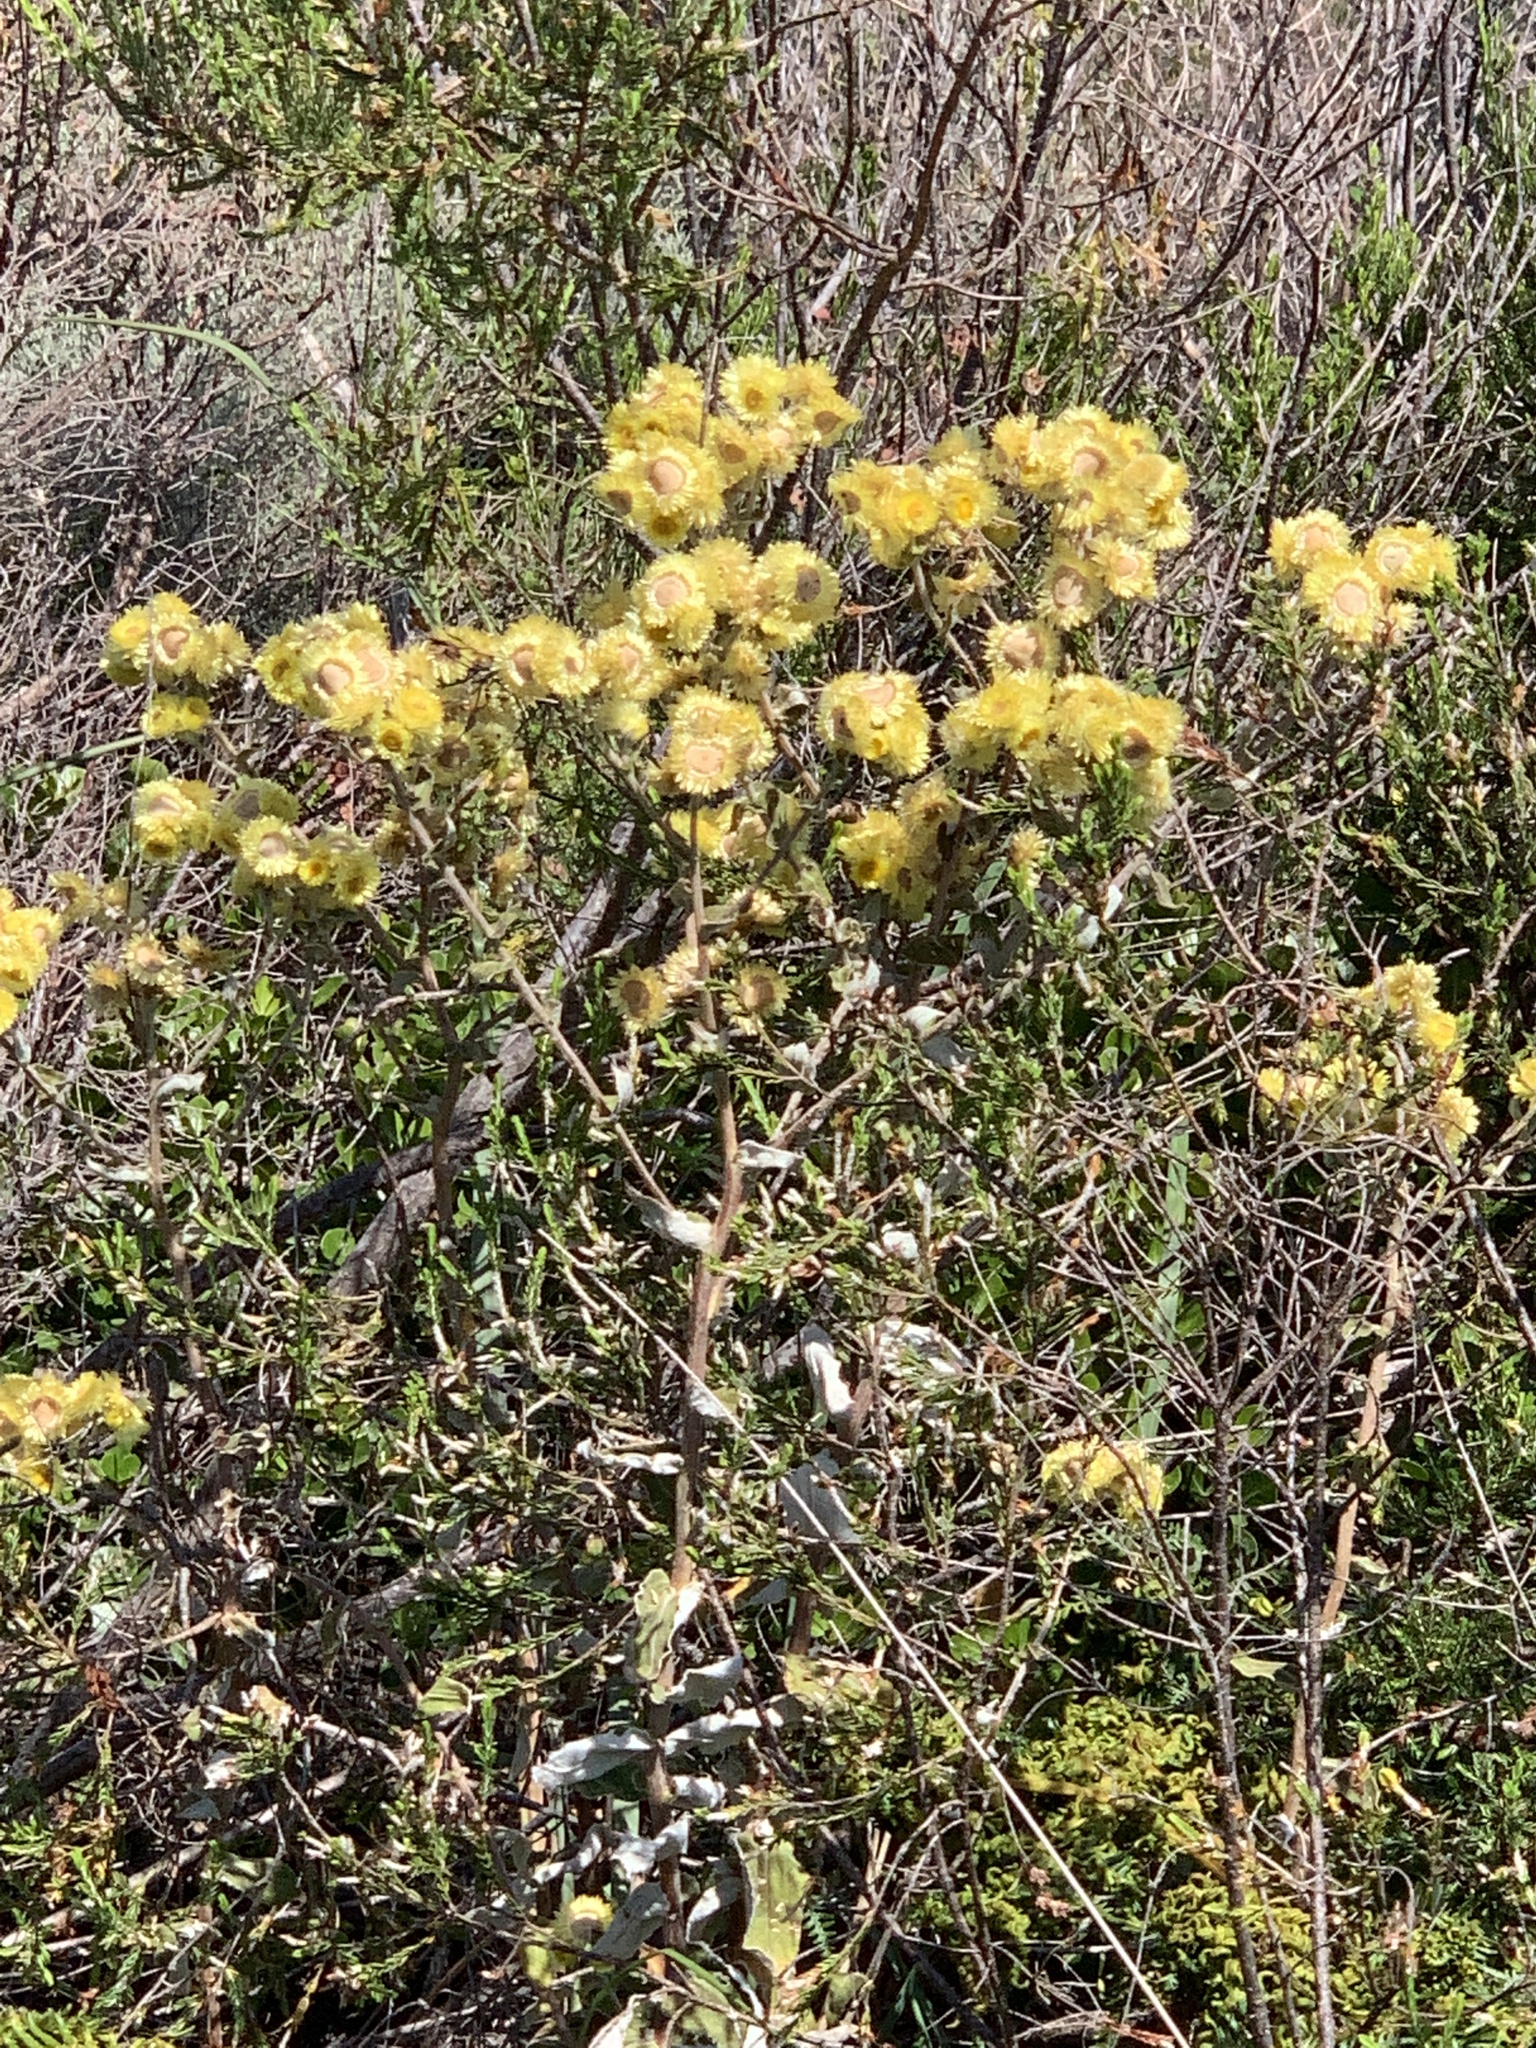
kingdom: Plantae
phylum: Tracheophyta
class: Magnoliopsida
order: Asterales
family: Asteraceae
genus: Helichrysum
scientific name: Helichrysum foetidum
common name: Stinking everlasting
